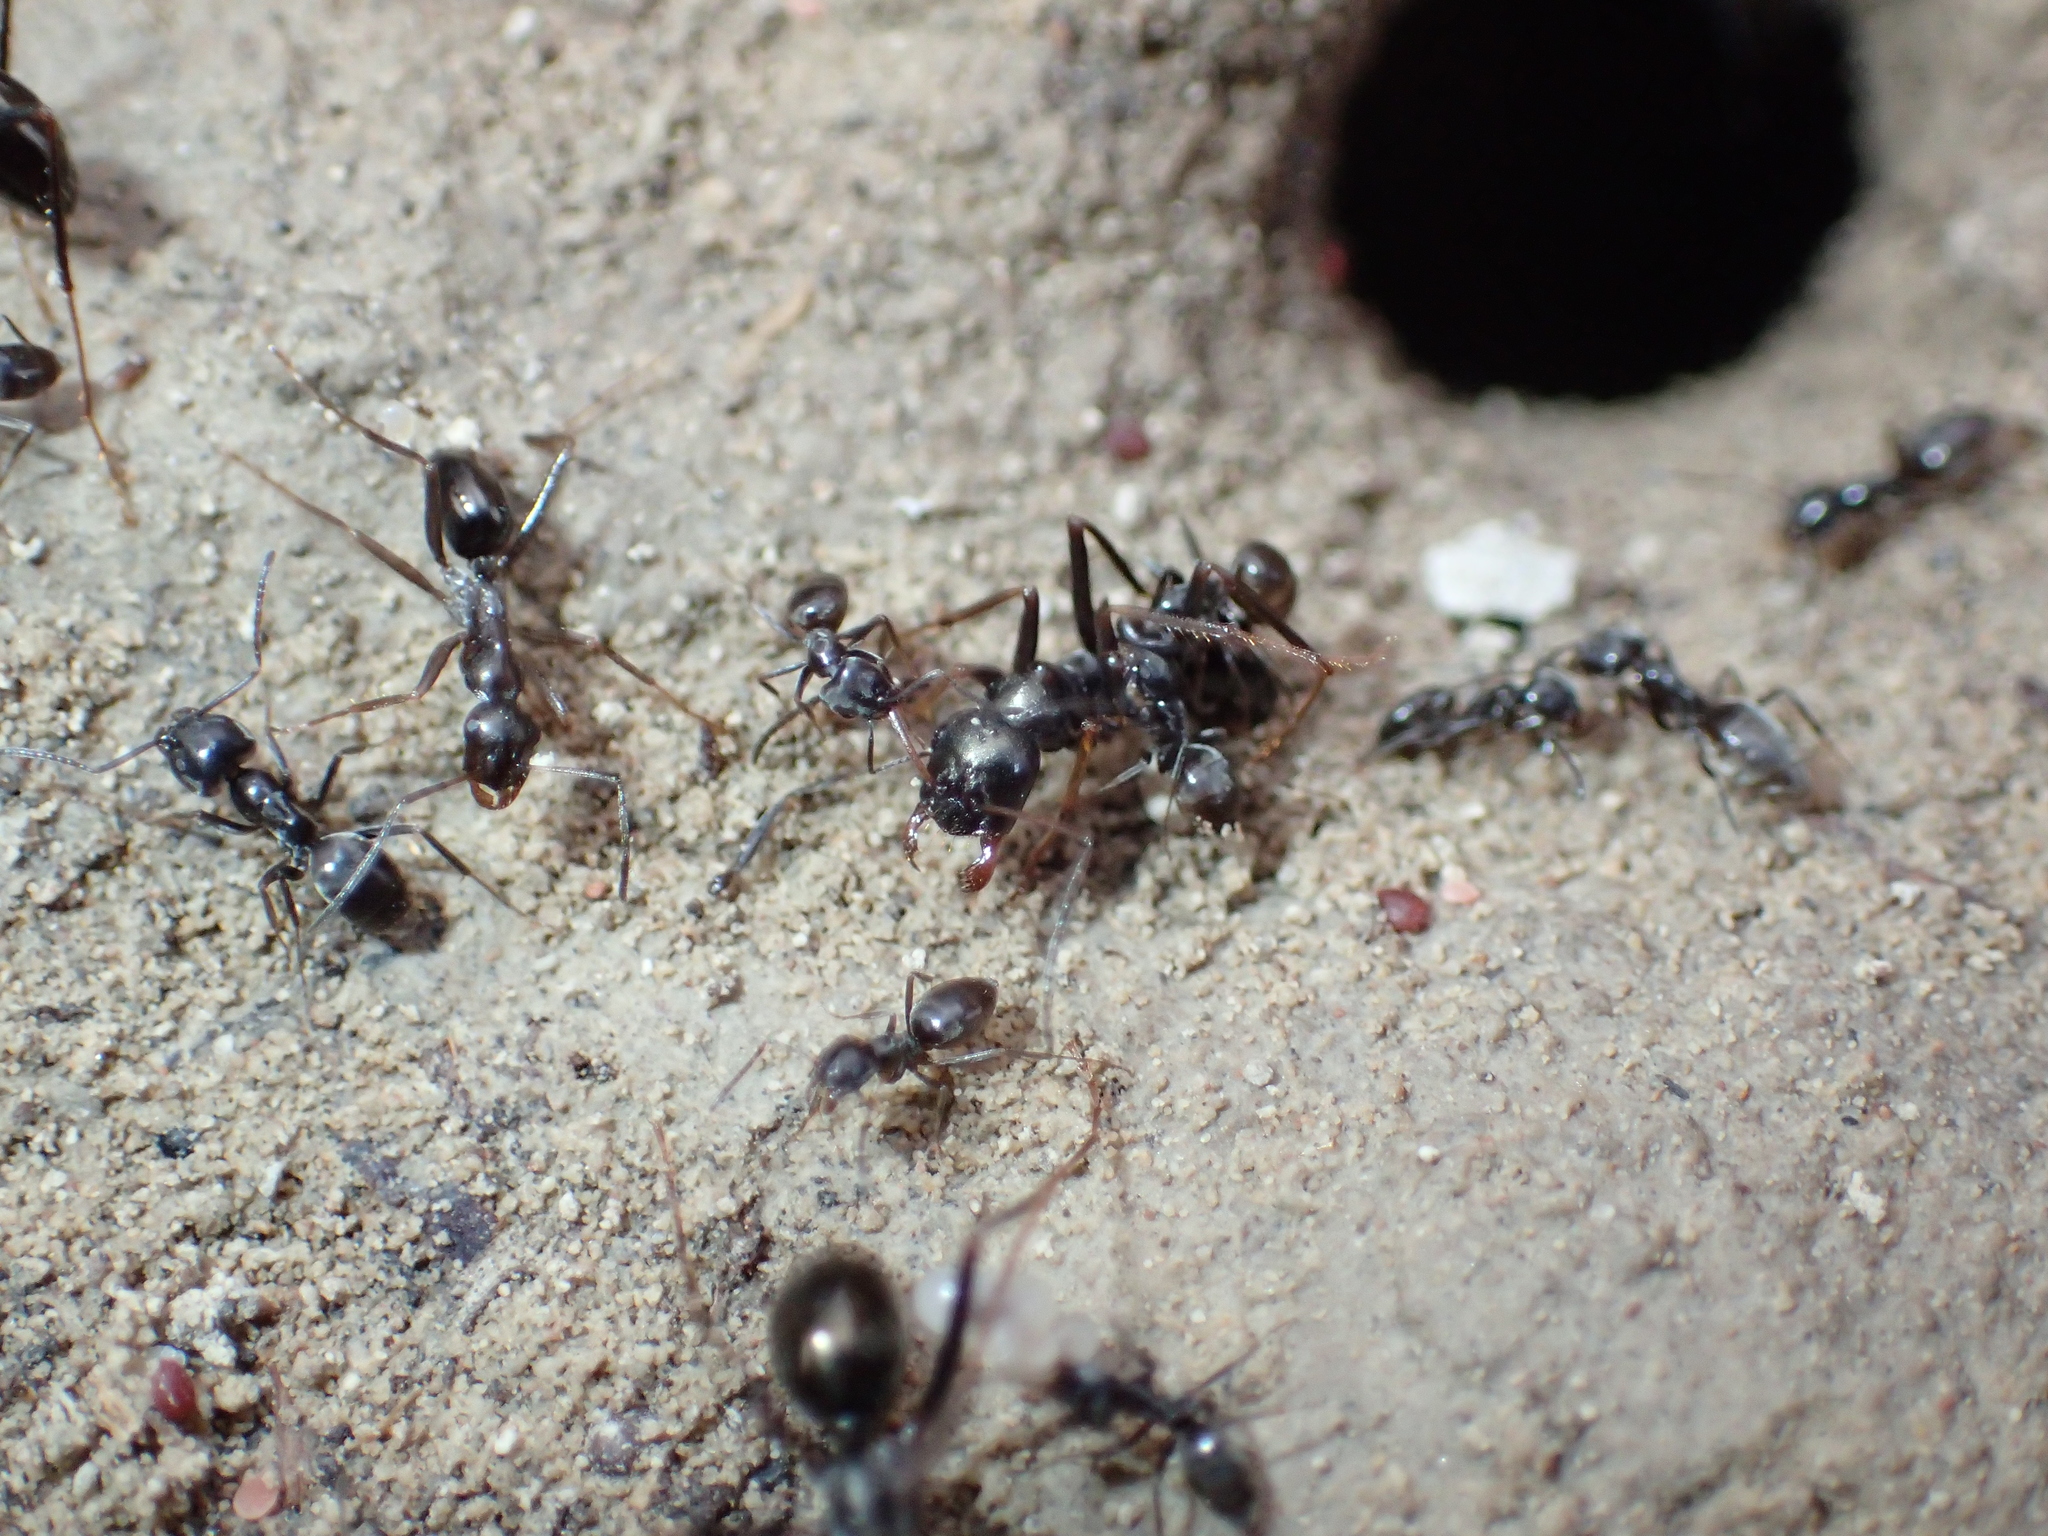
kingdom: Animalia
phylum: Arthropoda
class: Insecta
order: Hymenoptera
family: Formicidae
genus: Tapinoma
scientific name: Tapinoma nigerrimum
